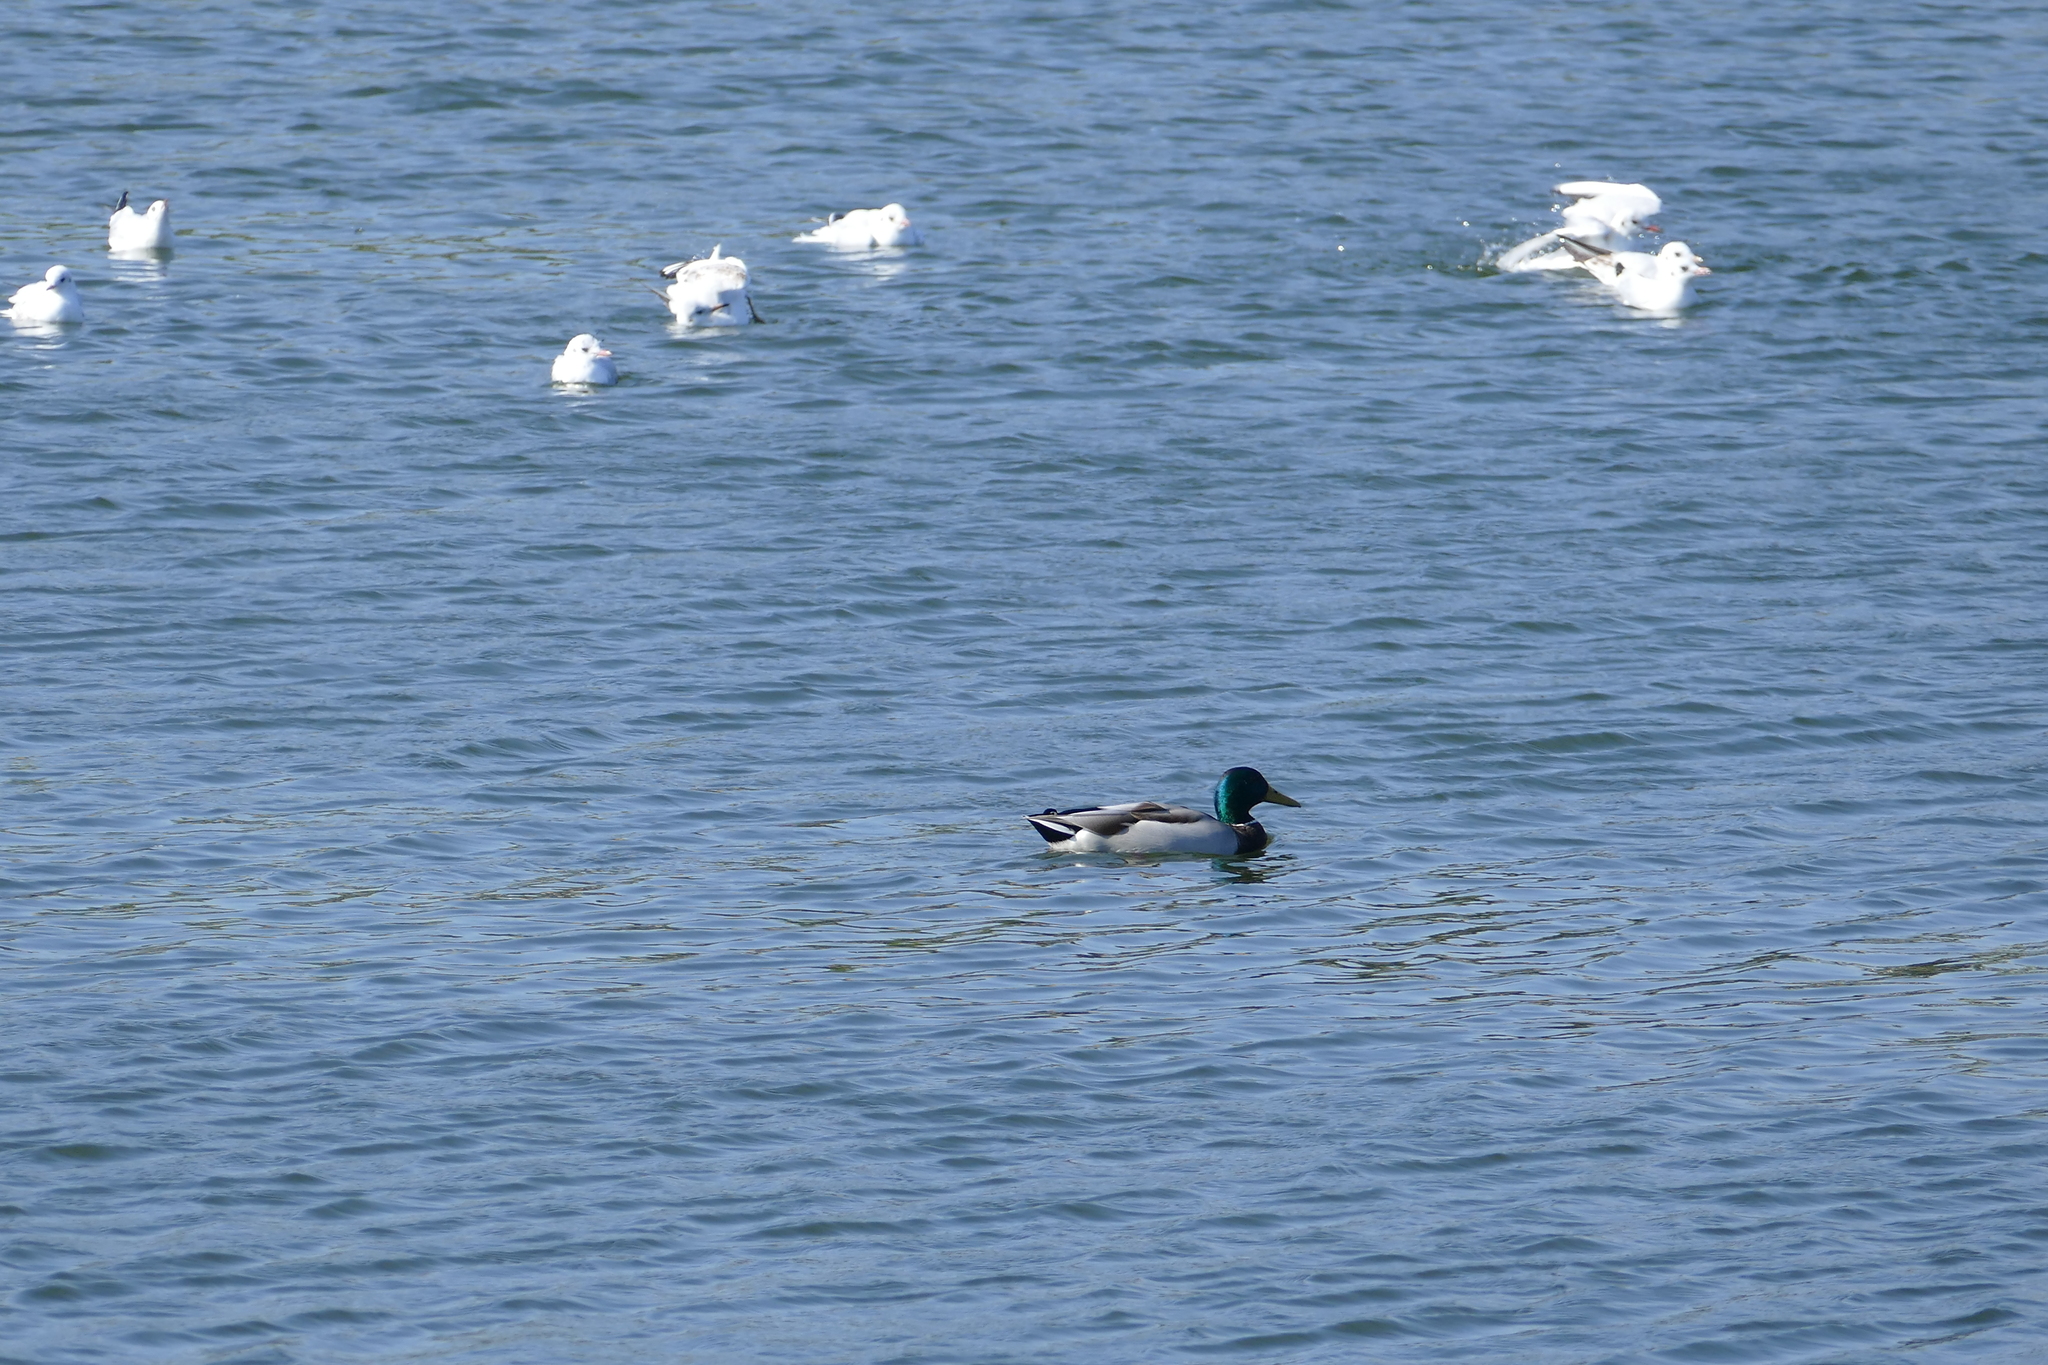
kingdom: Animalia
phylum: Chordata
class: Aves
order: Anseriformes
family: Anatidae
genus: Anas
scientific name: Anas platyrhynchos
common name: Mallard
